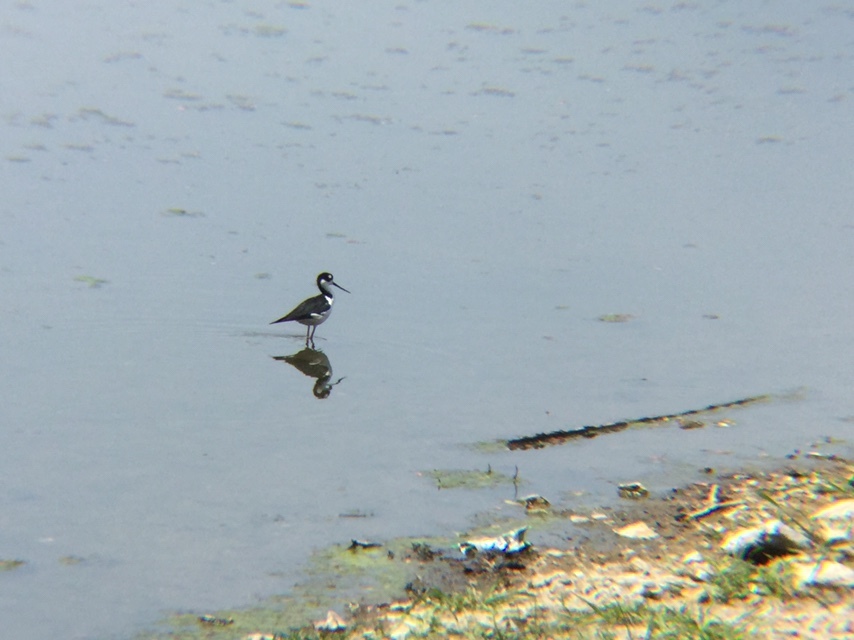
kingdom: Animalia
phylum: Chordata
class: Aves
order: Charadriiformes
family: Recurvirostridae
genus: Himantopus
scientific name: Himantopus mexicanus
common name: Black-necked stilt
